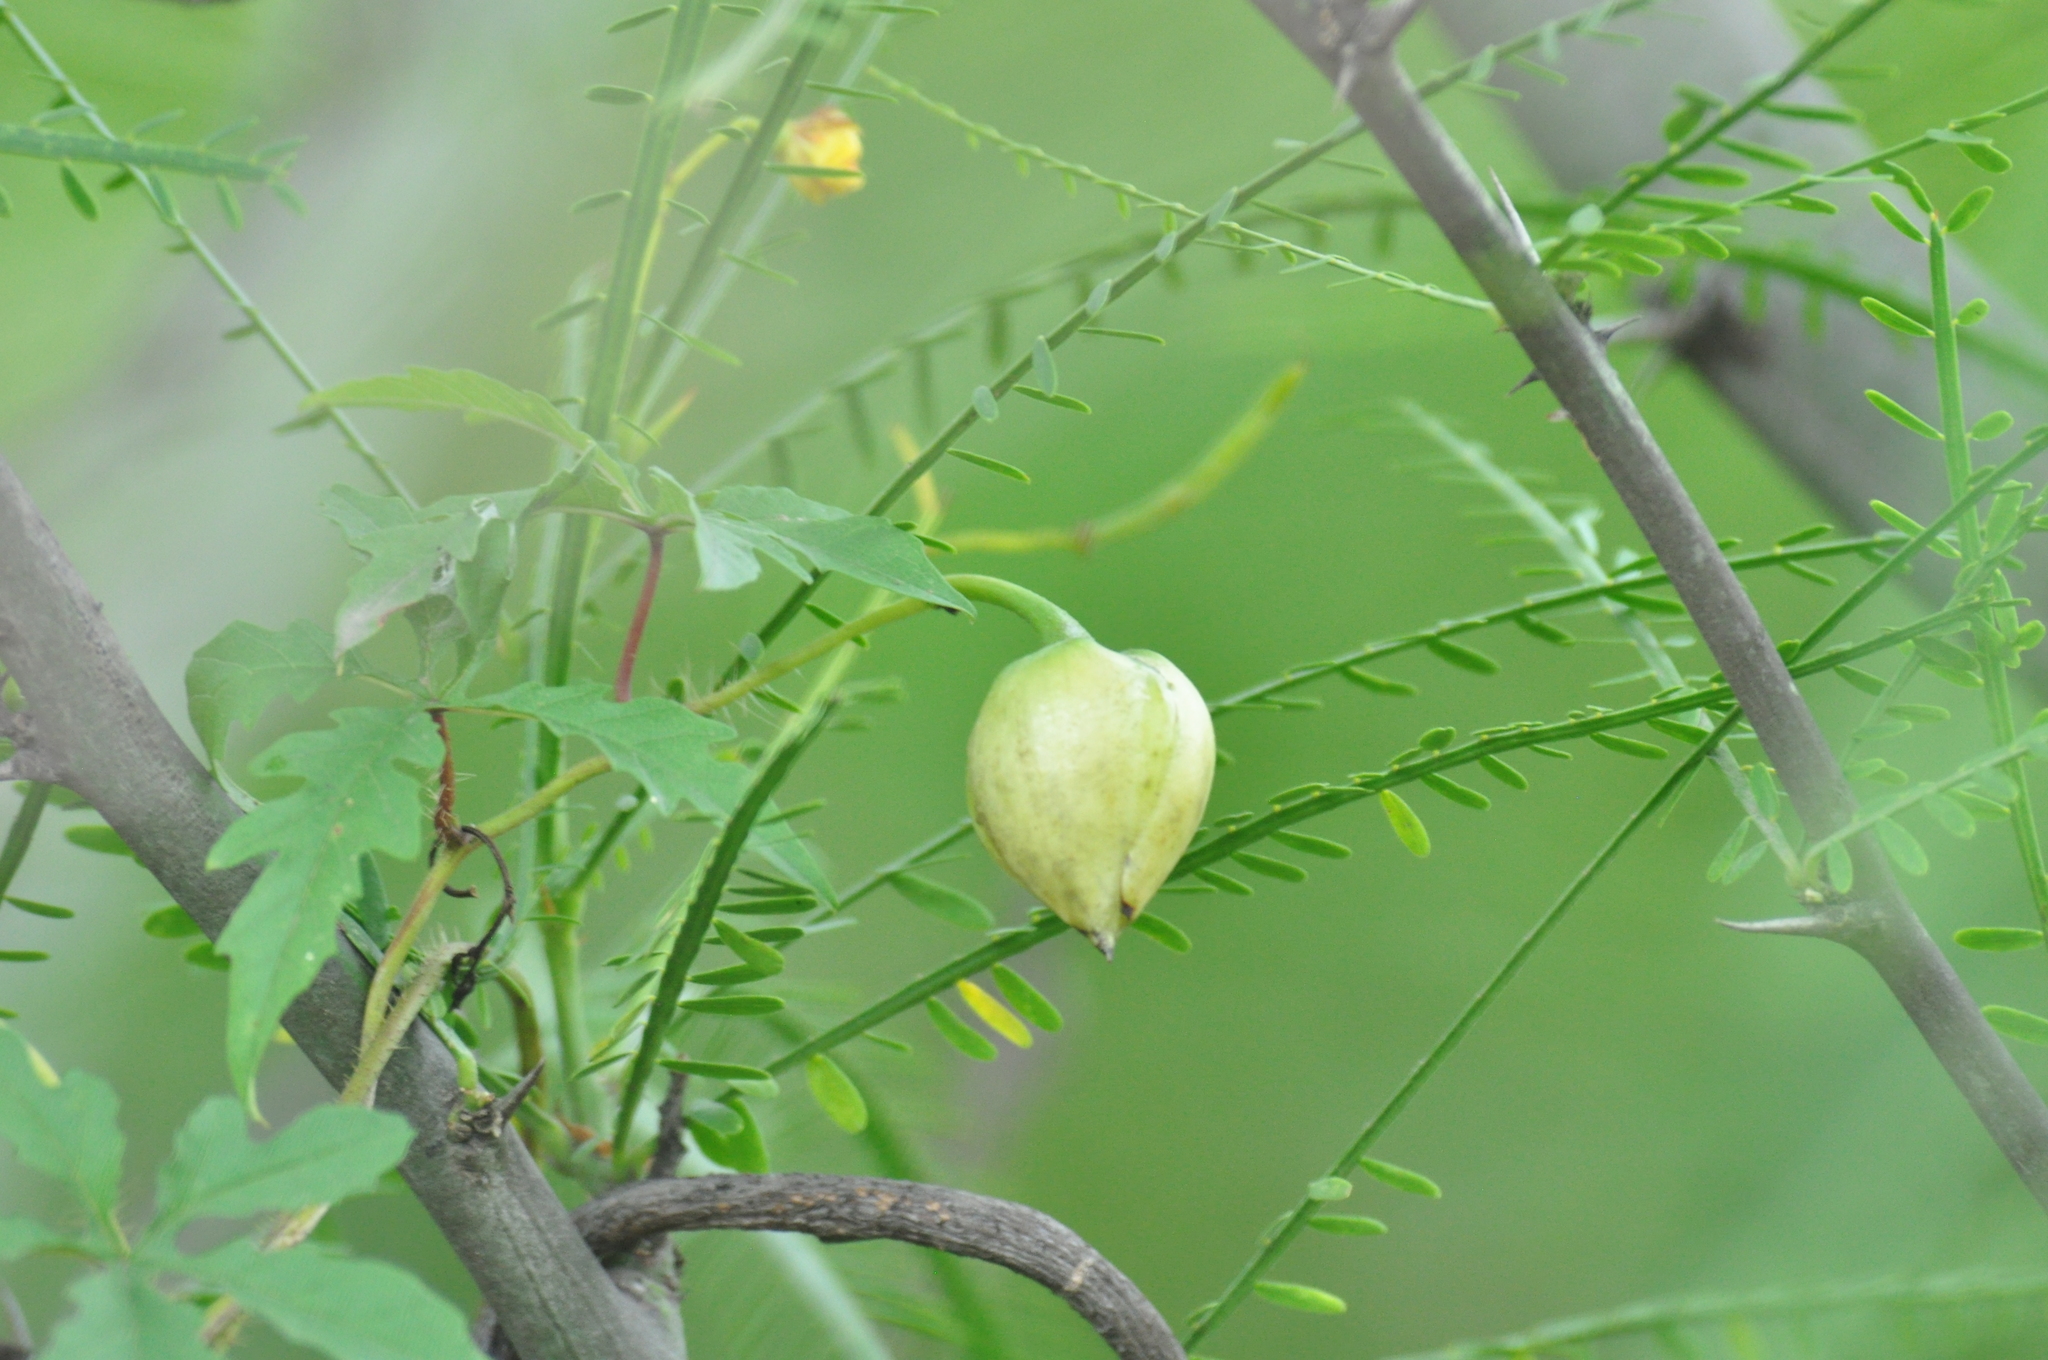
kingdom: Plantae
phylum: Tracheophyta
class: Magnoliopsida
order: Solanales
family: Convolvulaceae
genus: Distimake
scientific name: Distimake dissectus
